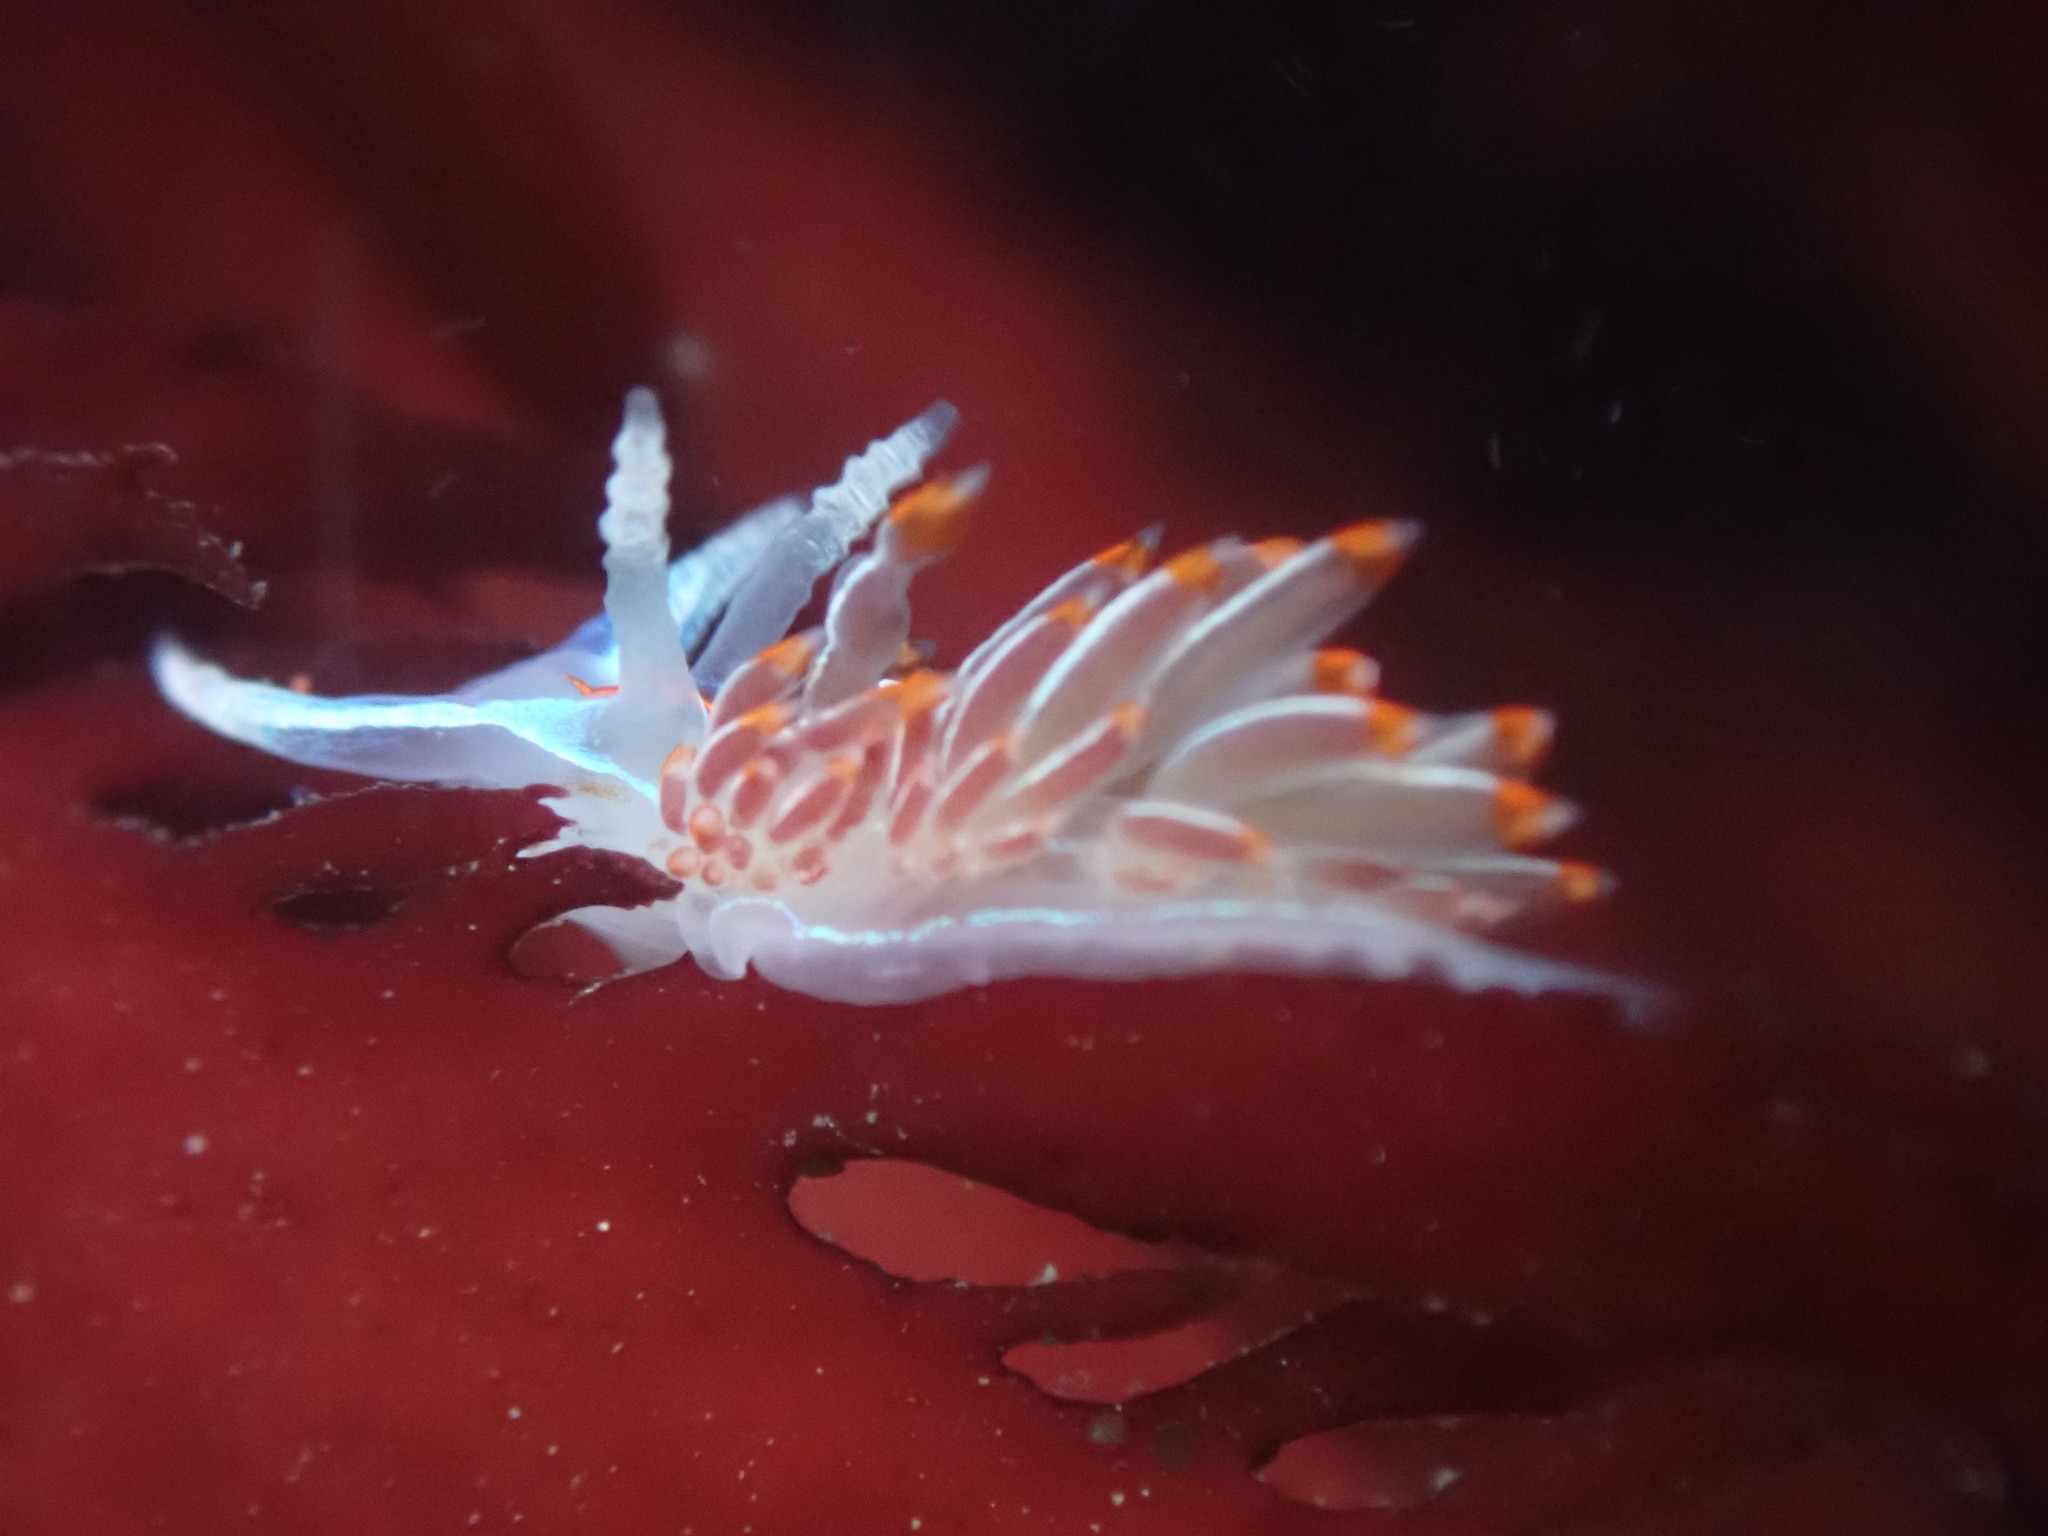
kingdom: Animalia
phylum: Mollusca
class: Gastropoda
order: Nudibranchia
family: Myrrhinidae
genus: Hermissenda
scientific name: Hermissenda crassicornis
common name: Hermissenda
